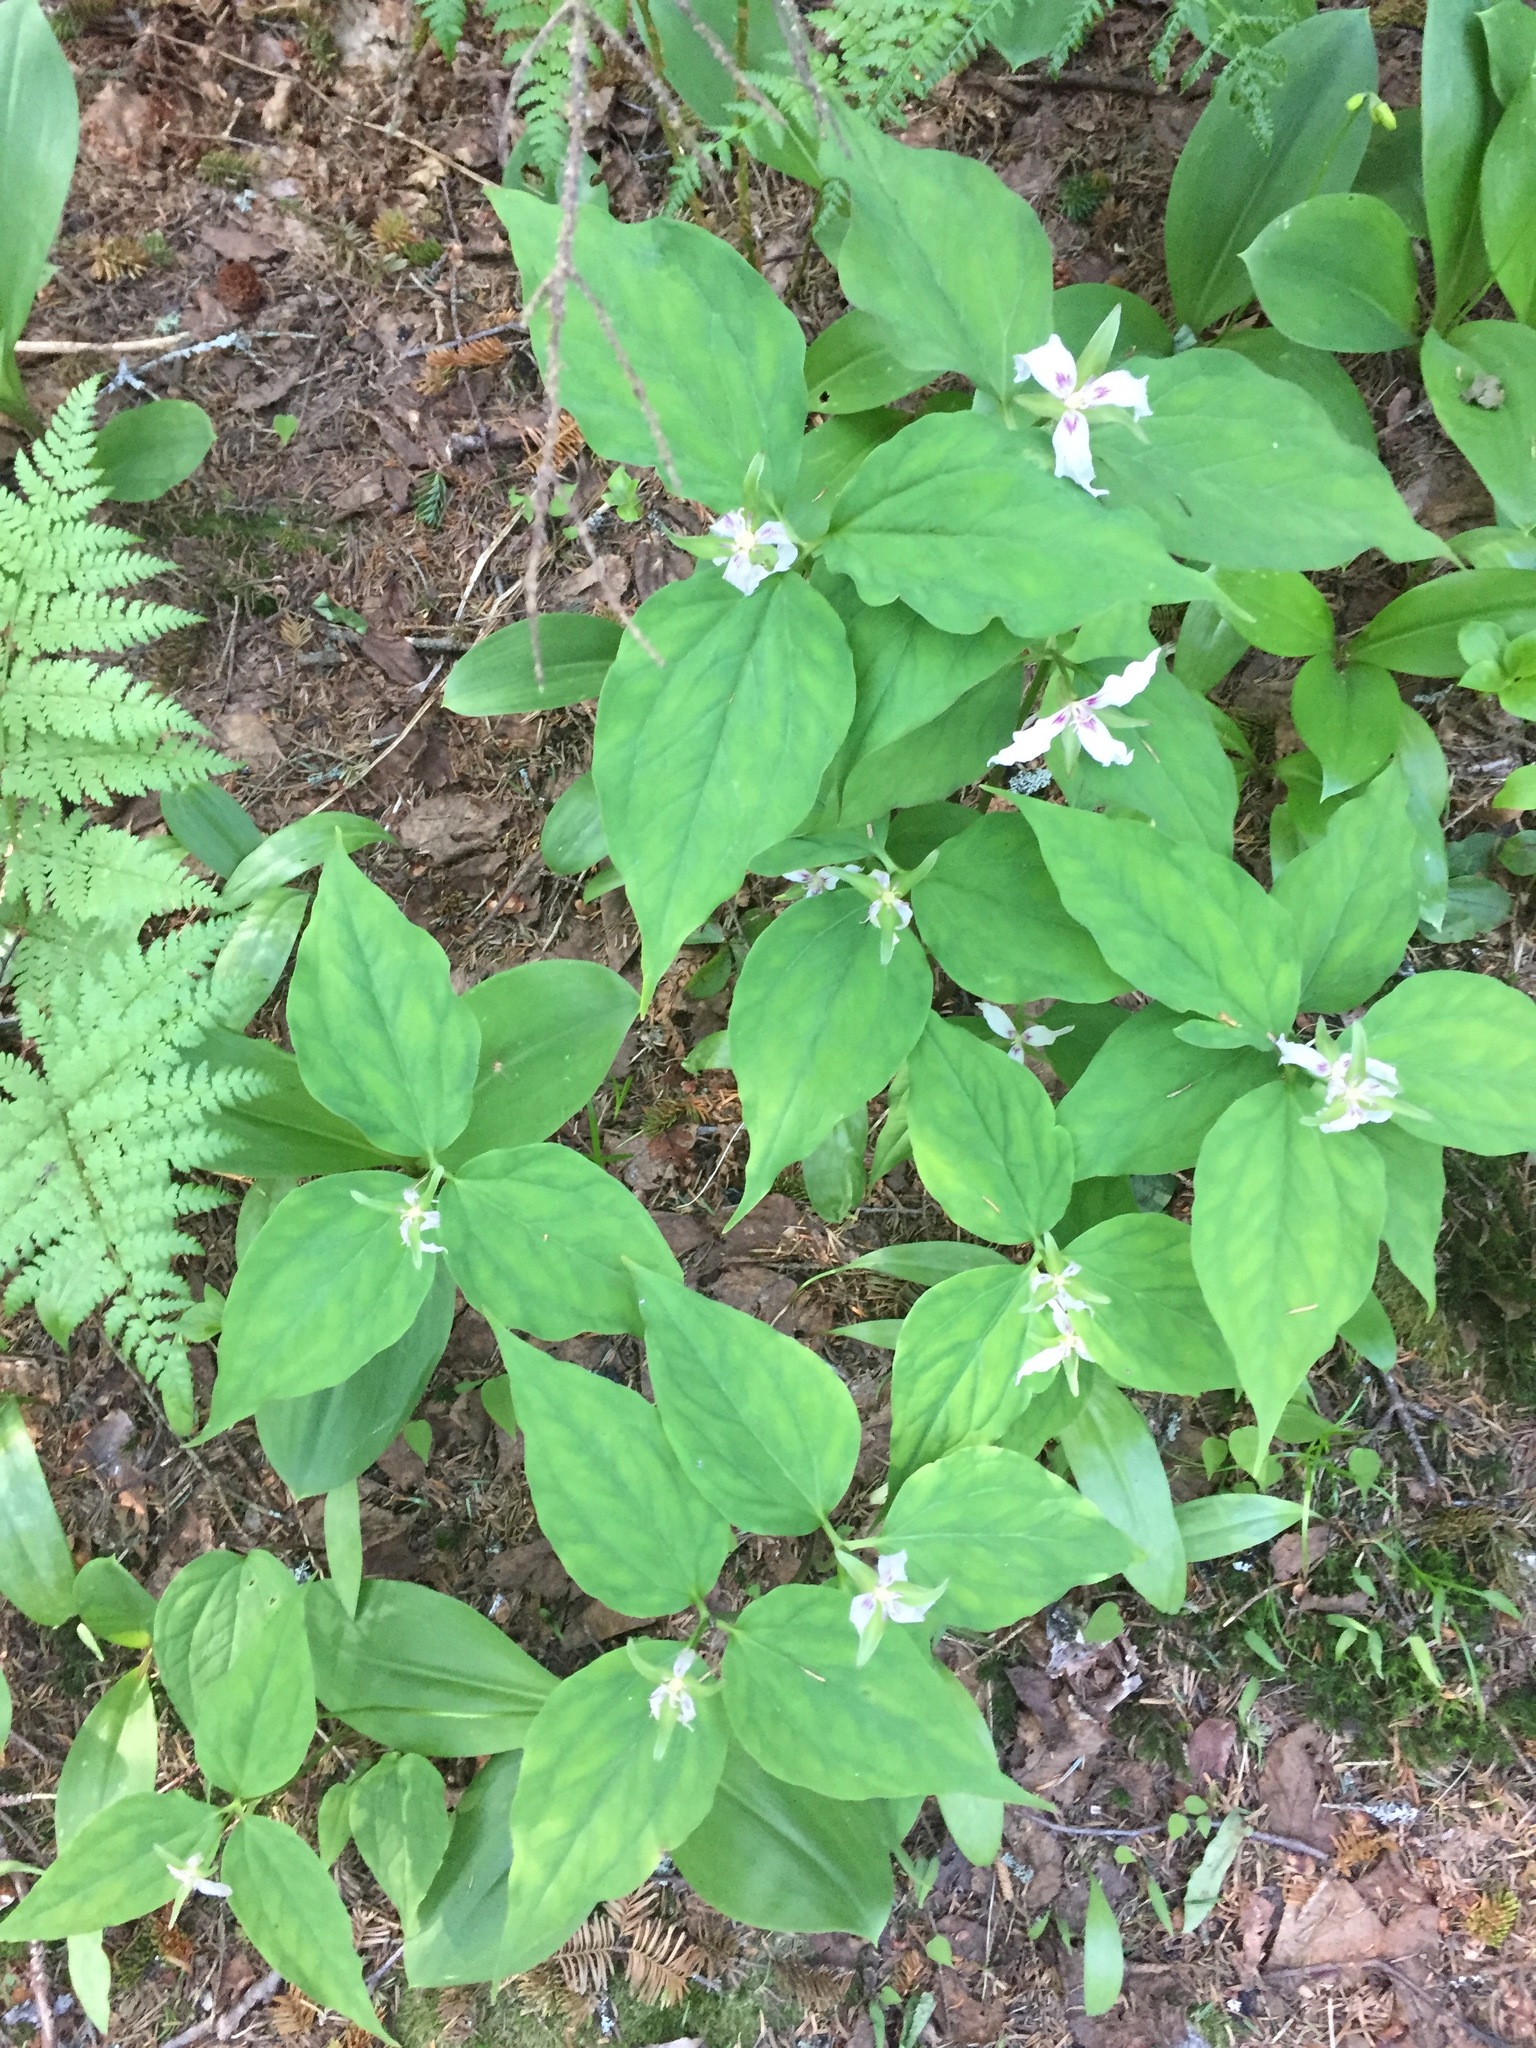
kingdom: Plantae
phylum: Tracheophyta
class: Liliopsida
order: Liliales
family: Melanthiaceae
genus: Trillium
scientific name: Trillium undulatum
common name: Paint trillium
